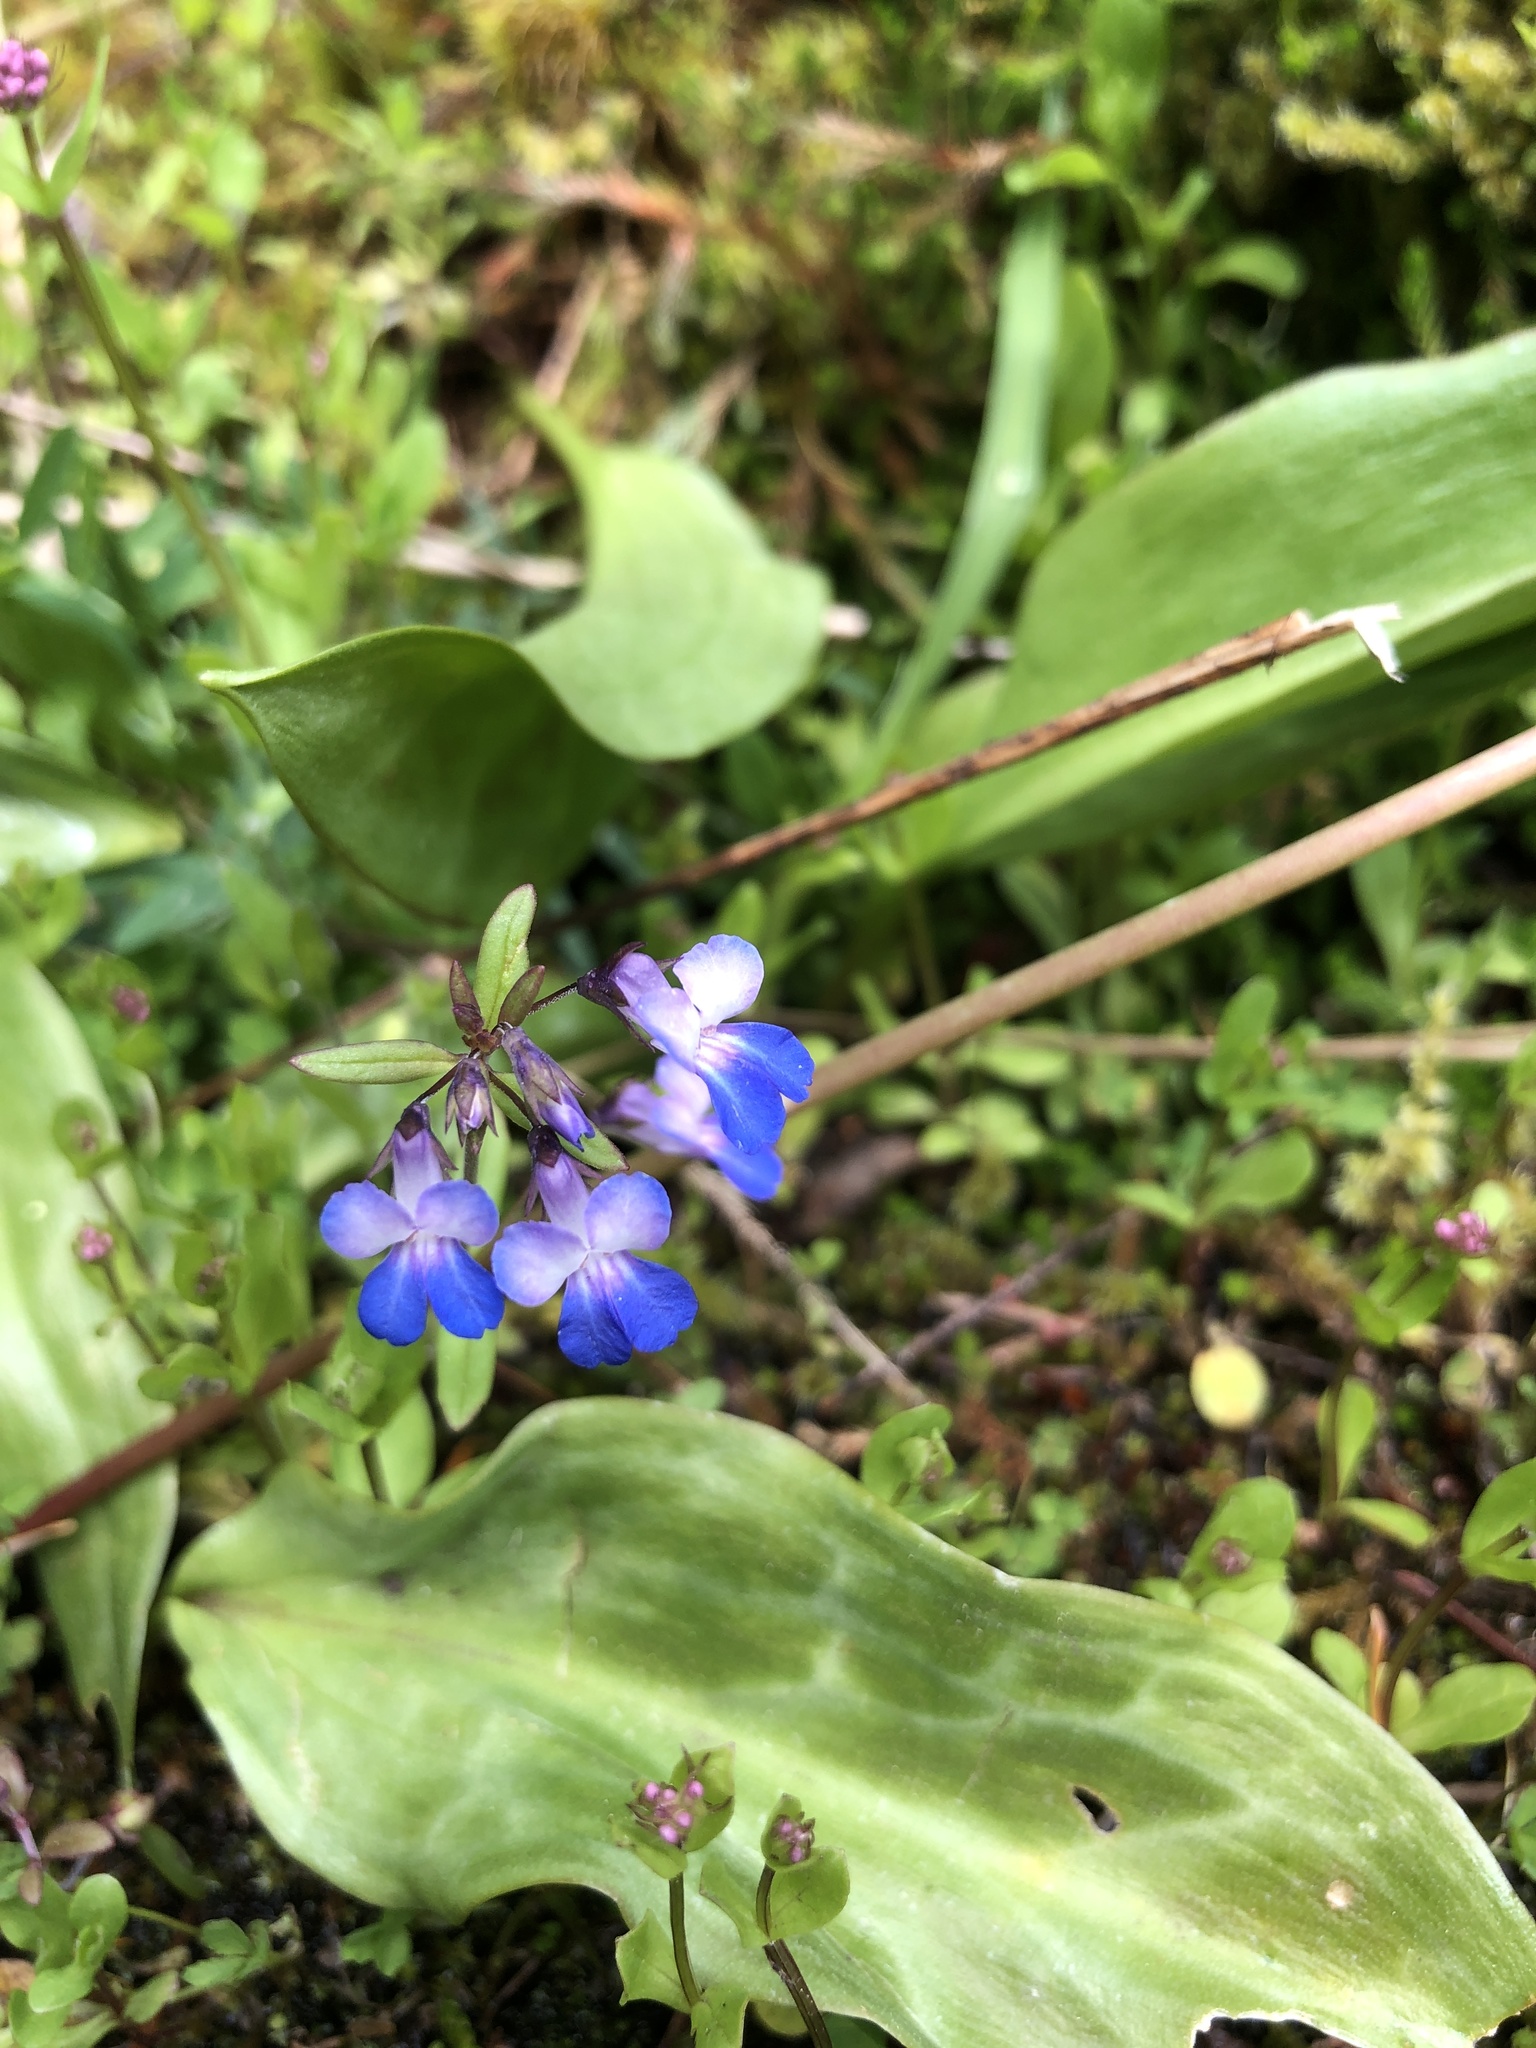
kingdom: Plantae
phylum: Tracheophyta
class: Magnoliopsida
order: Lamiales
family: Plantaginaceae
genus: Collinsia
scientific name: Collinsia grandiflora
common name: Large-flower blue-eyed-mary
